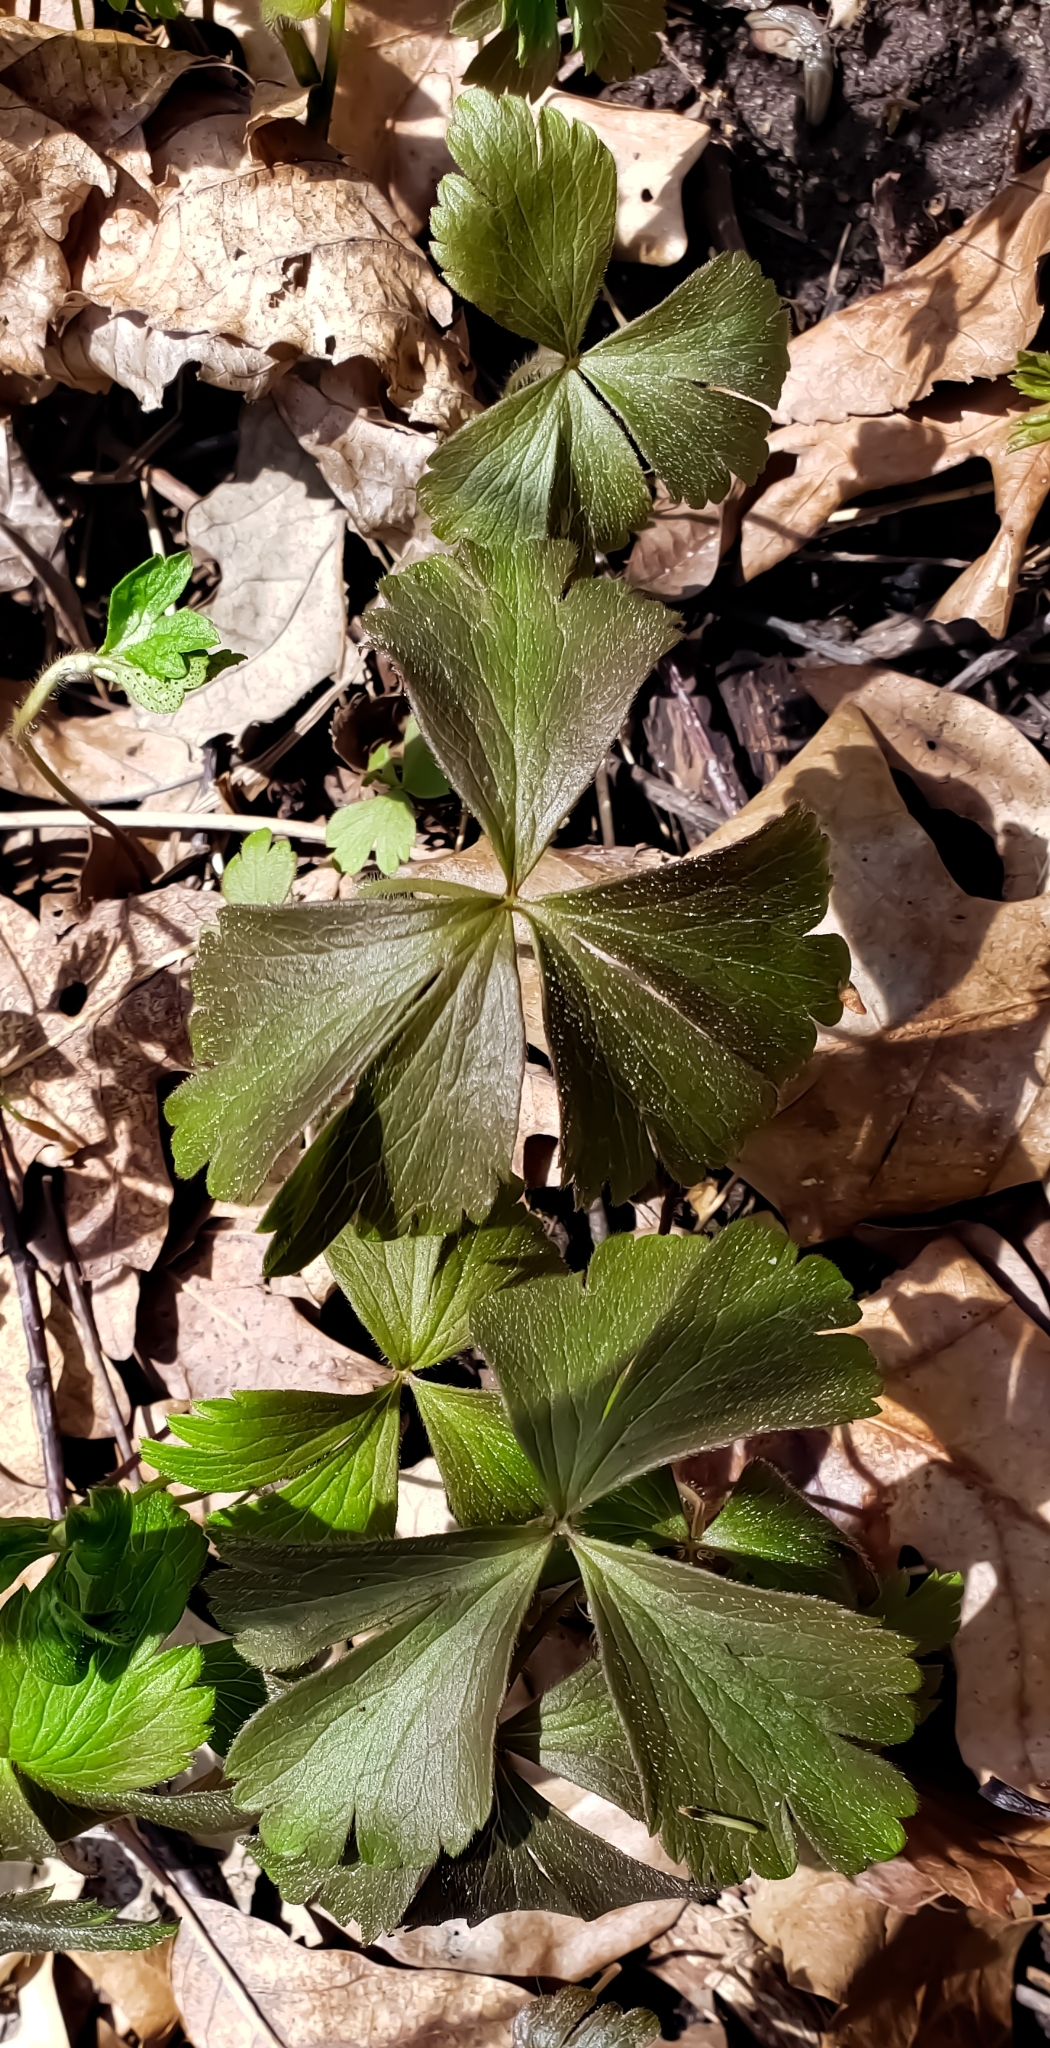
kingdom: Plantae
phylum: Tracheophyta
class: Magnoliopsida
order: Ranunculales
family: Ranunculaceae
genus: Anemone
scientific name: Anemone quinquefolia
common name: Wood anemone
